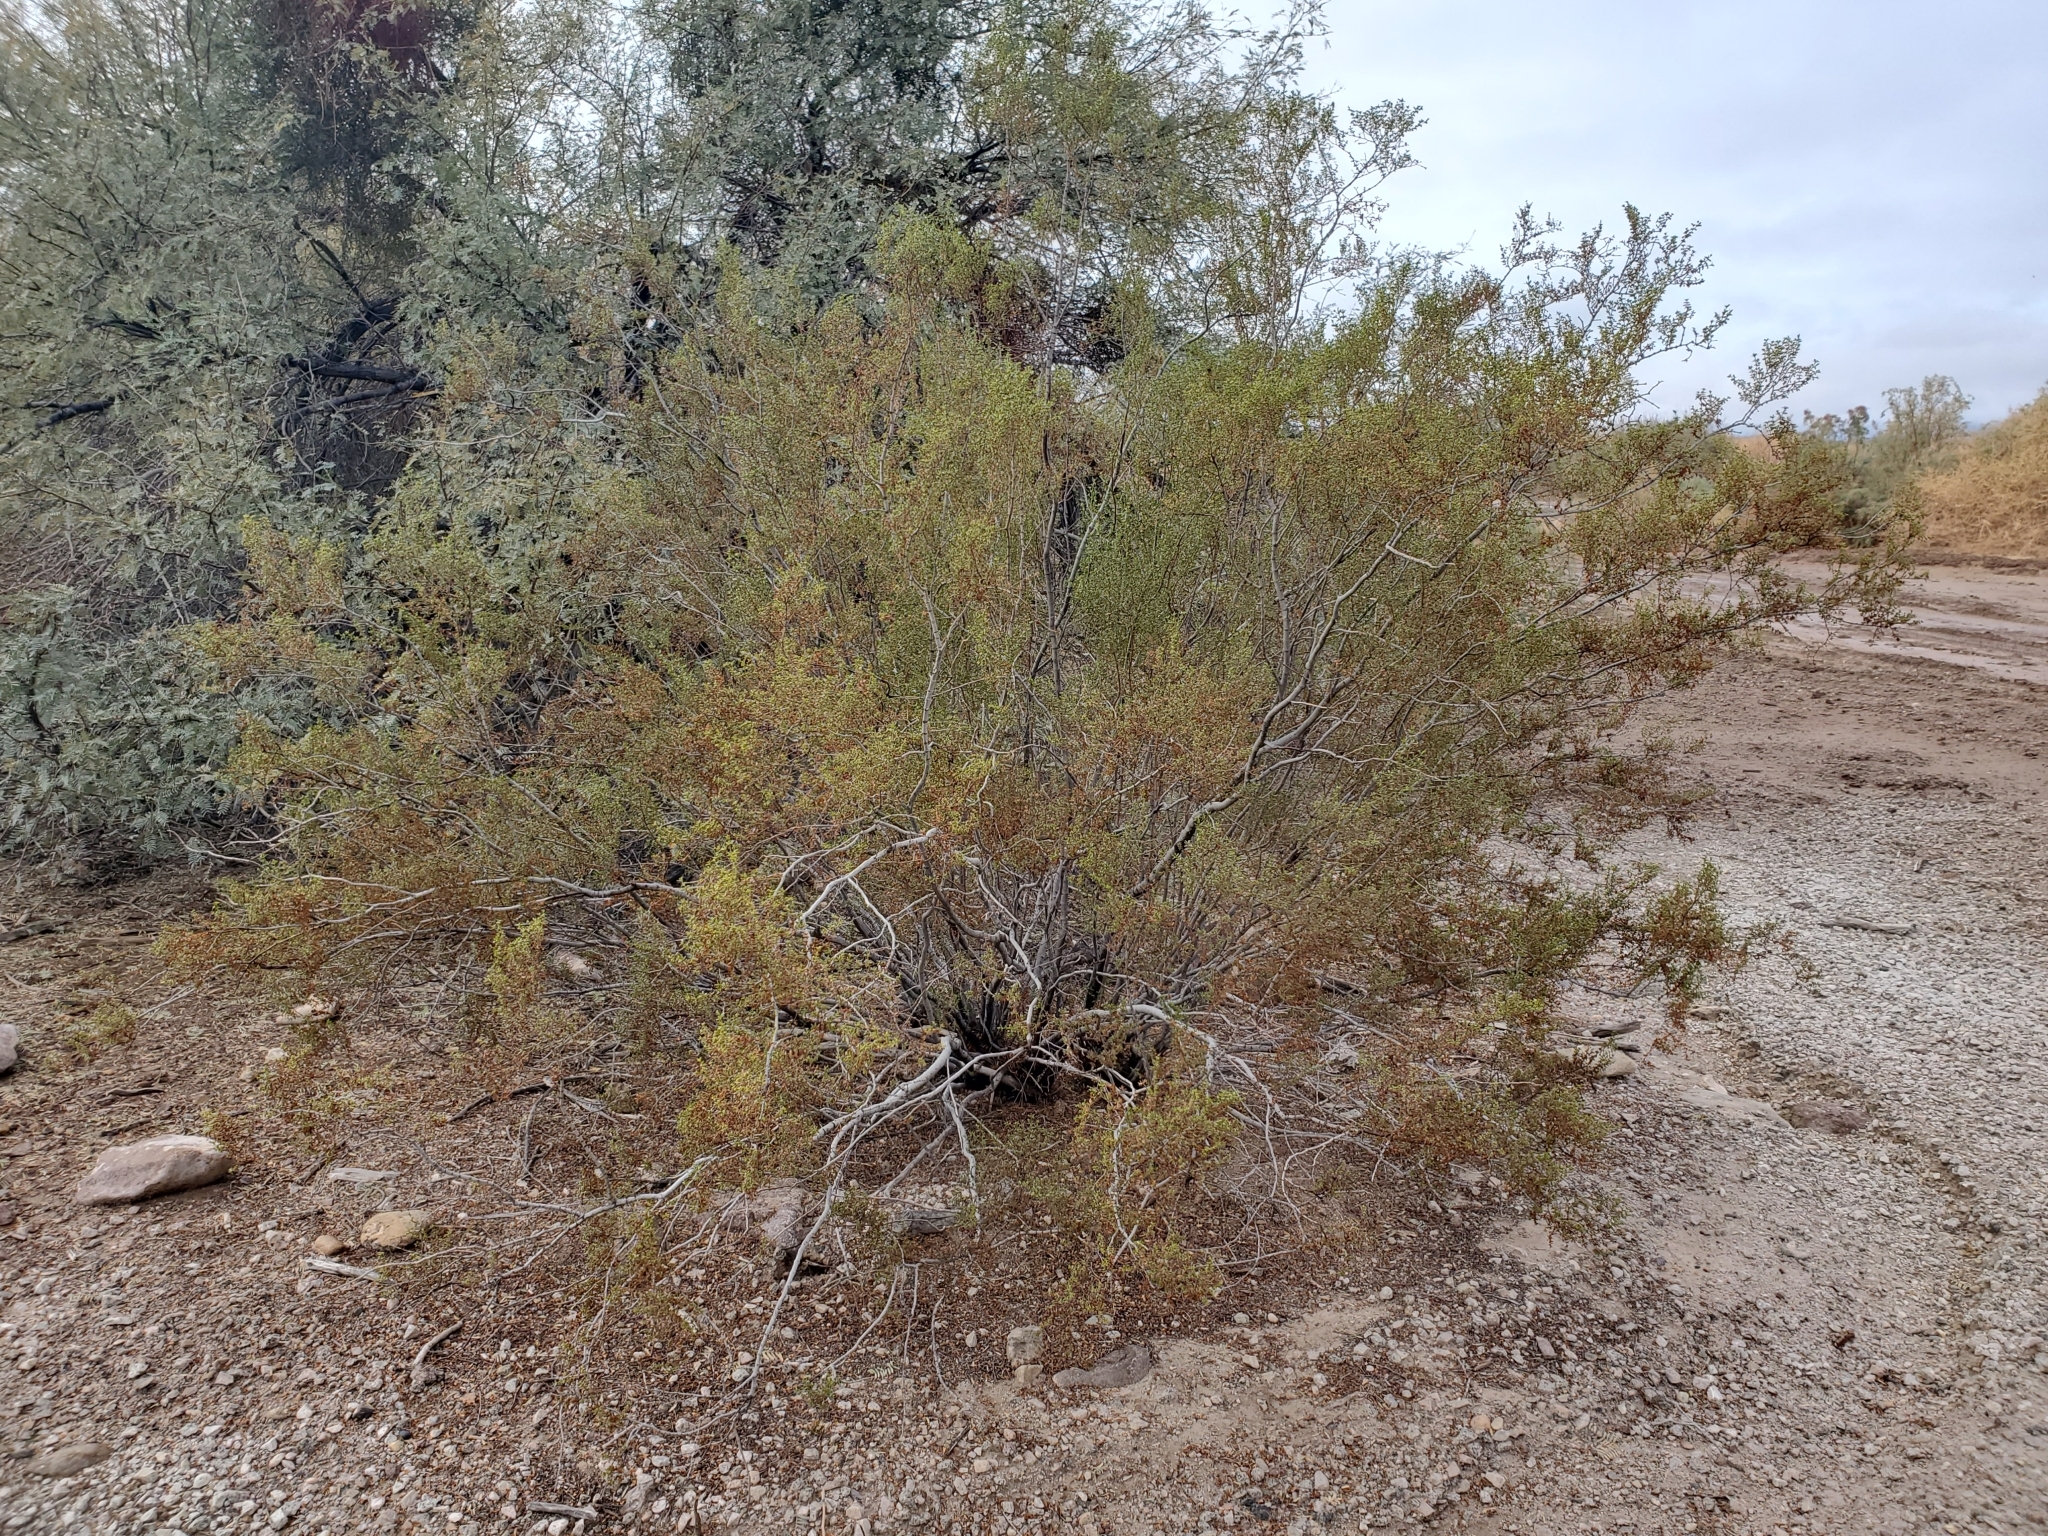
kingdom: Plantae
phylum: Tracheophyta
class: Magnoliopsida
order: Zygophyllales
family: Zygophyllaceae
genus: Larrea
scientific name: Larrea tridentata
